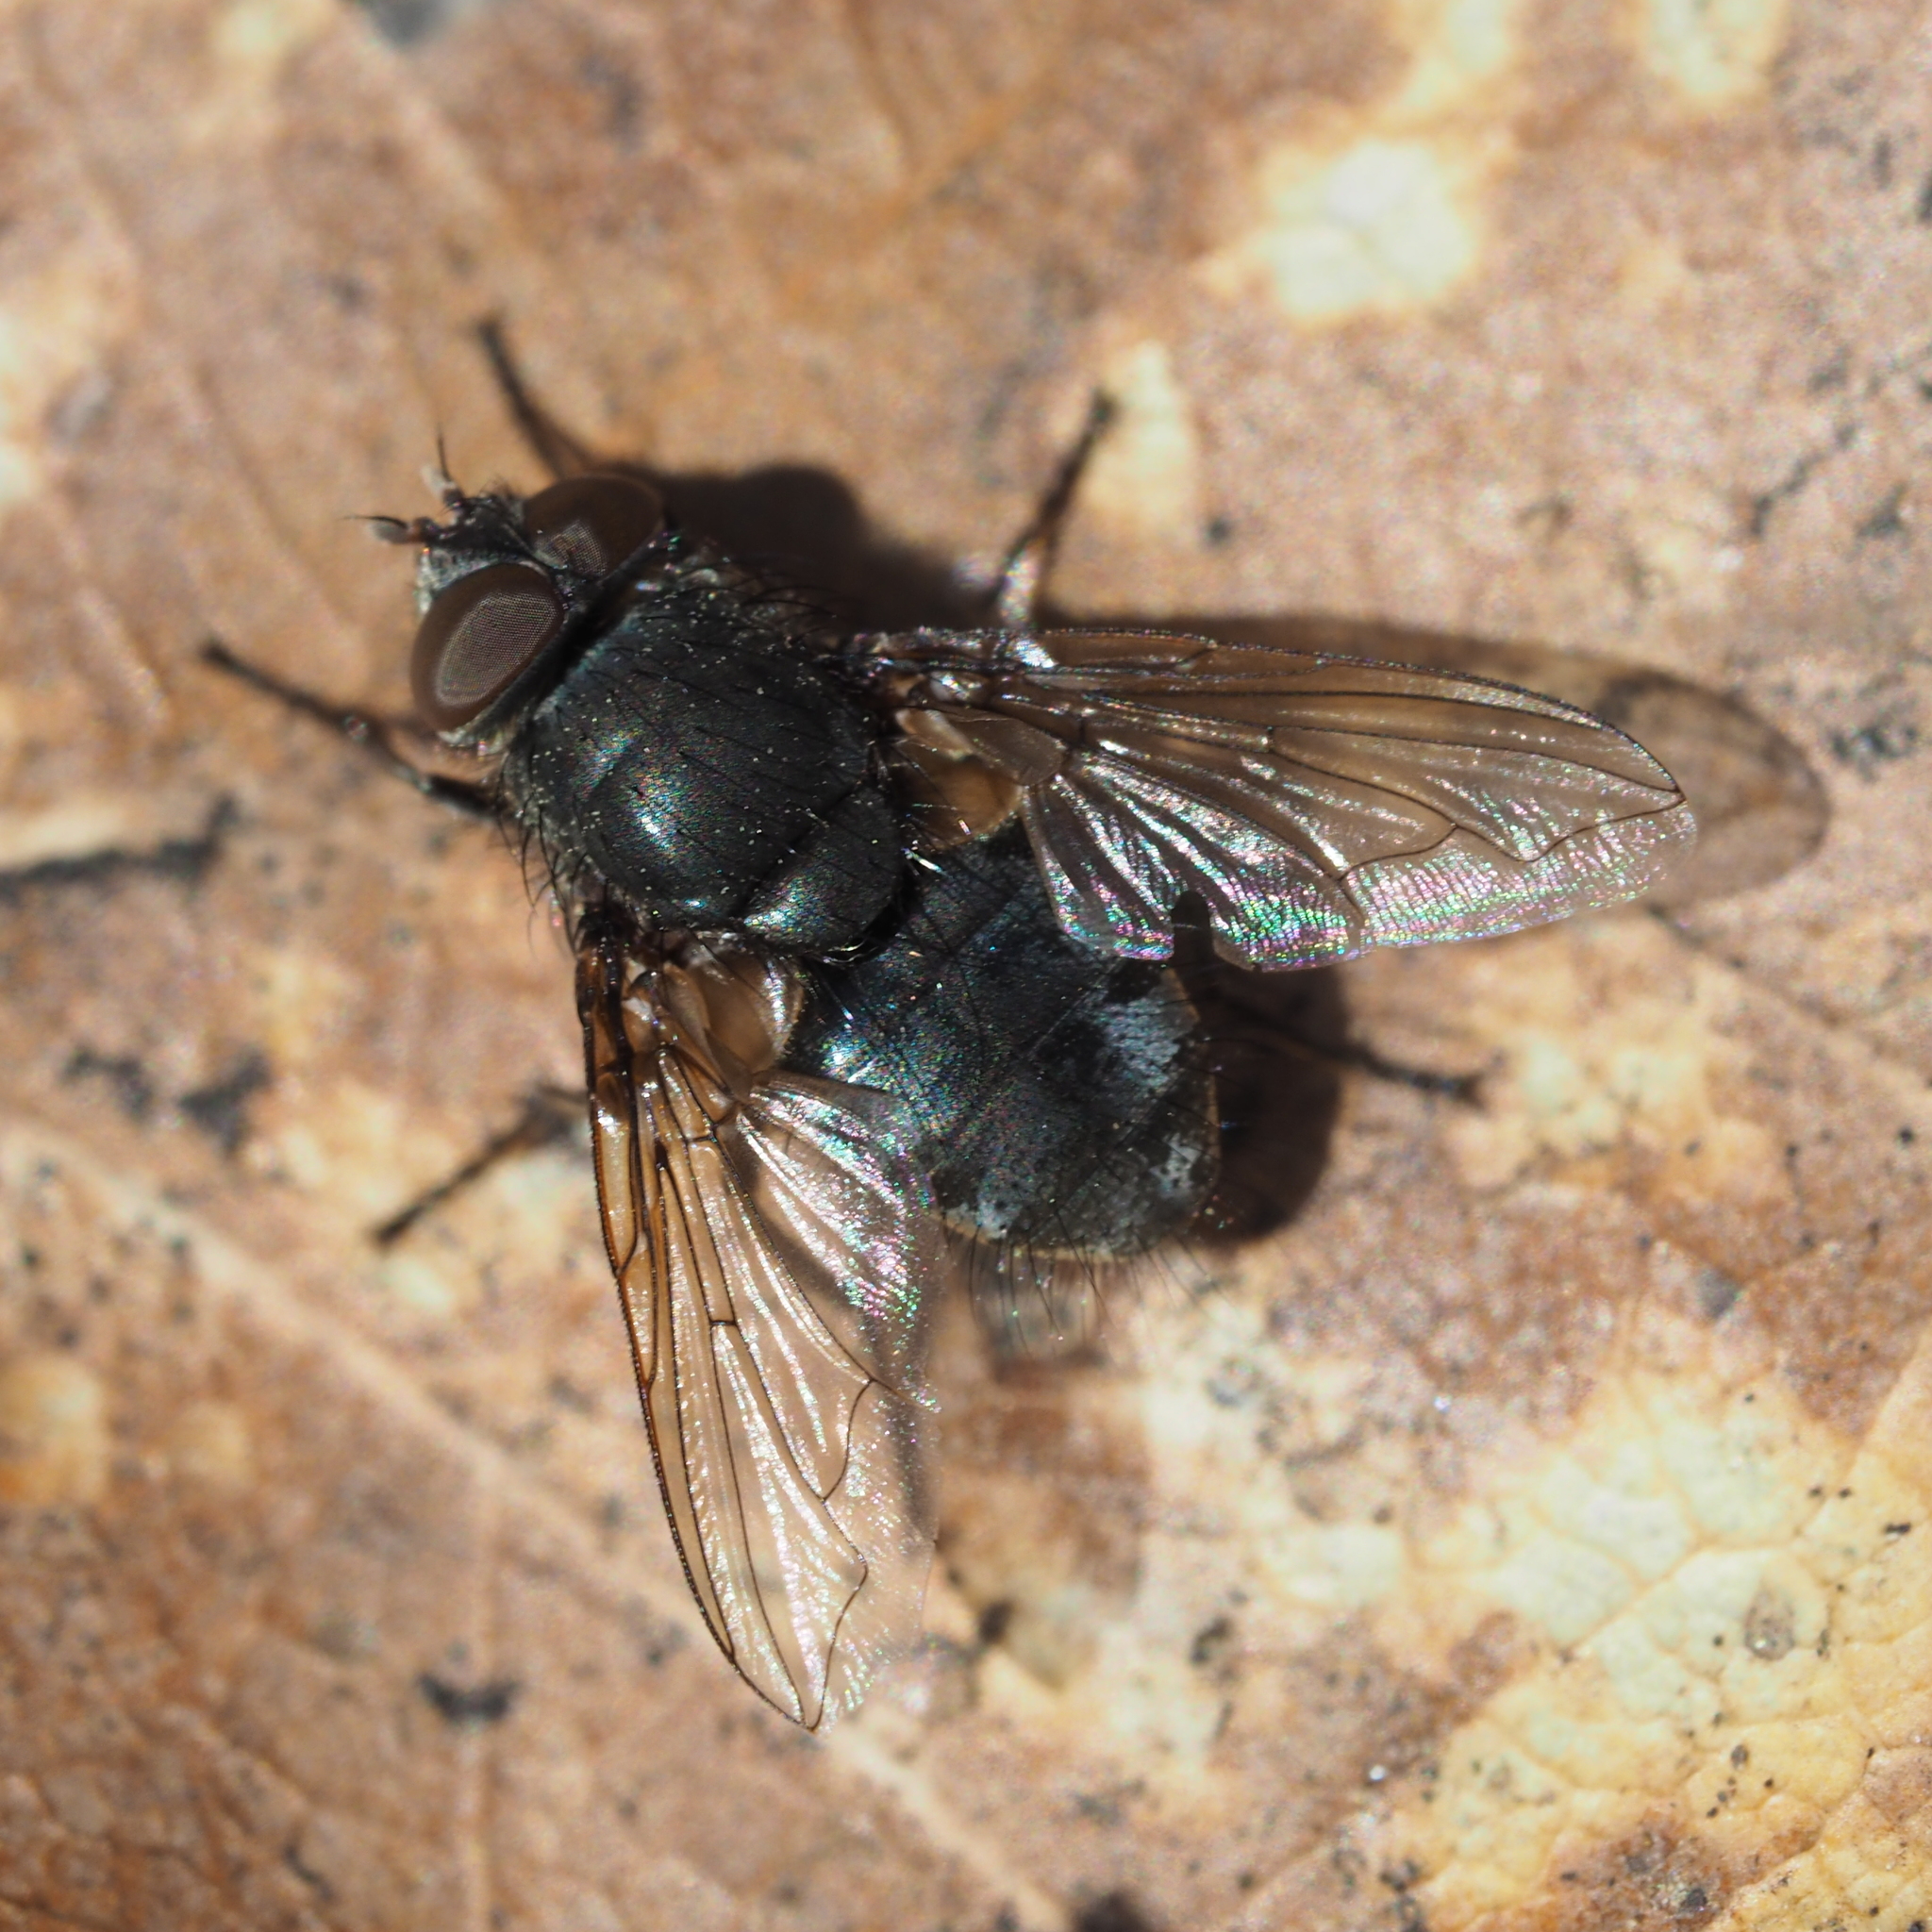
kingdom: Animalia
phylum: Arthropoda
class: Insecta
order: Diptera
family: Polleniidae
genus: Pollenia
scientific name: Pollenia
